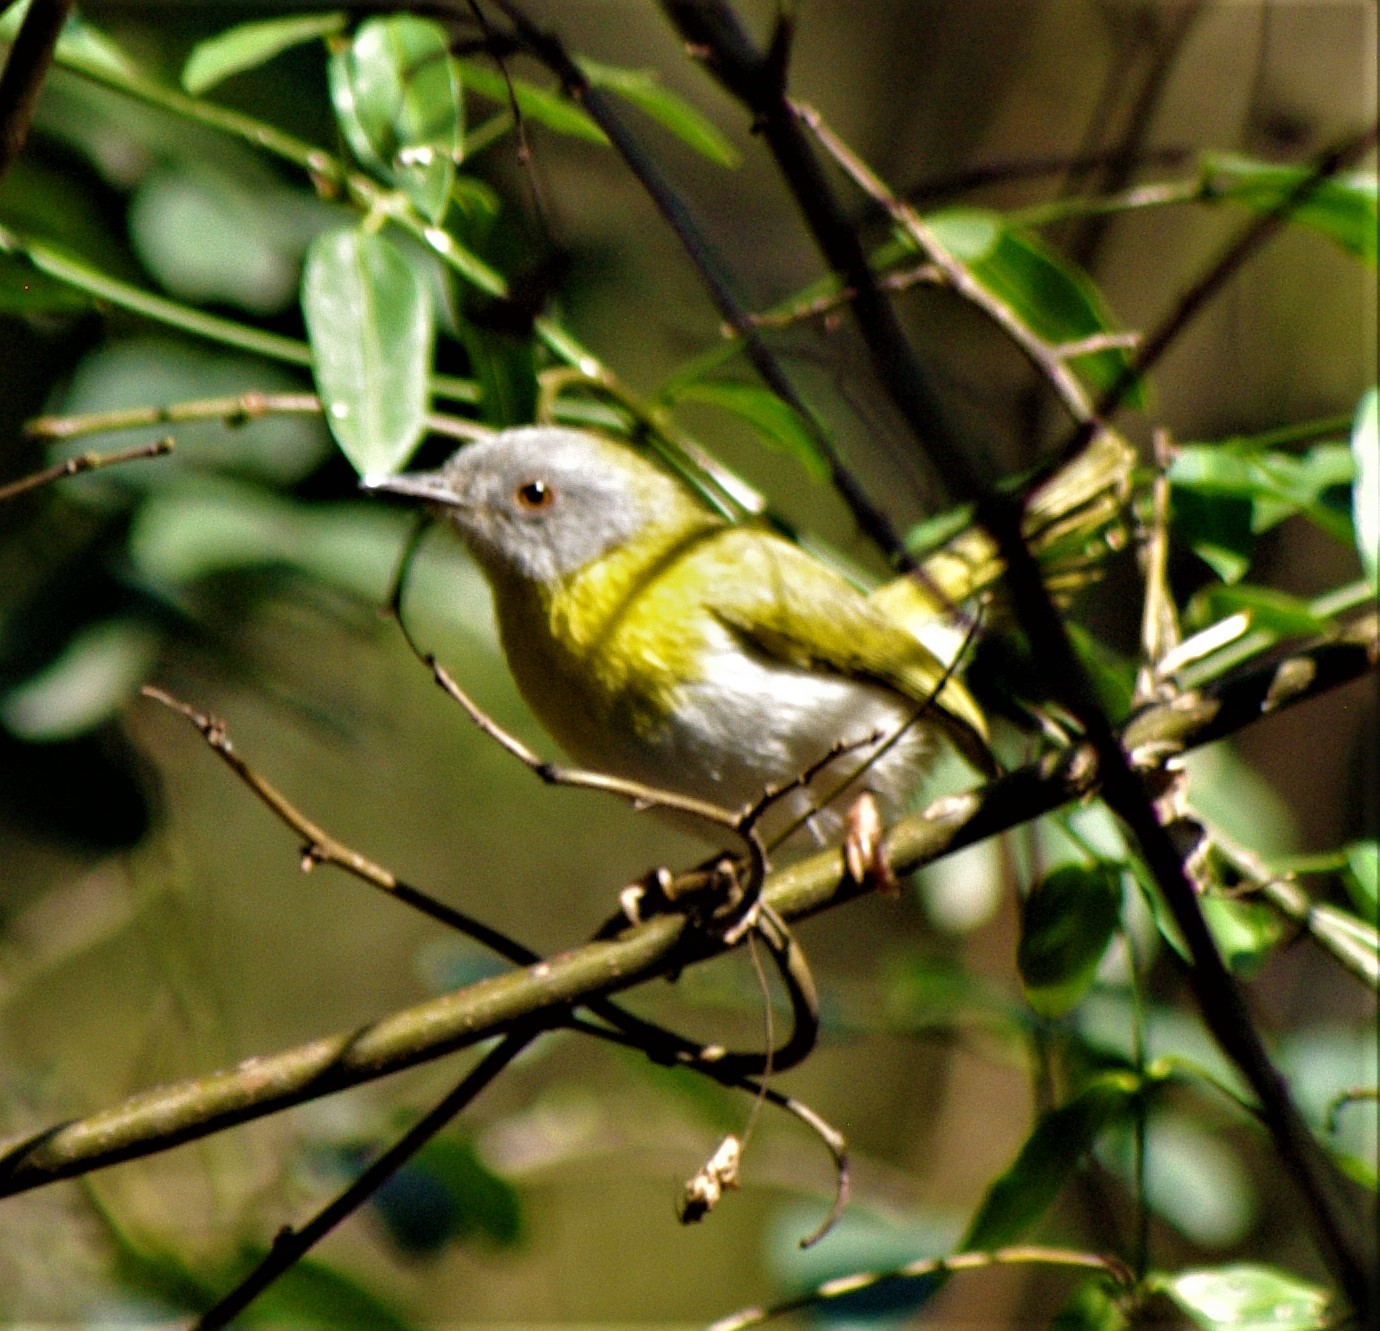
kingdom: Animalia
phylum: Chordata
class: Aves
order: Passeriformes
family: Cisticolidae
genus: Apalis
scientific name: Apalis flavida
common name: Yellow-breasted apalis
